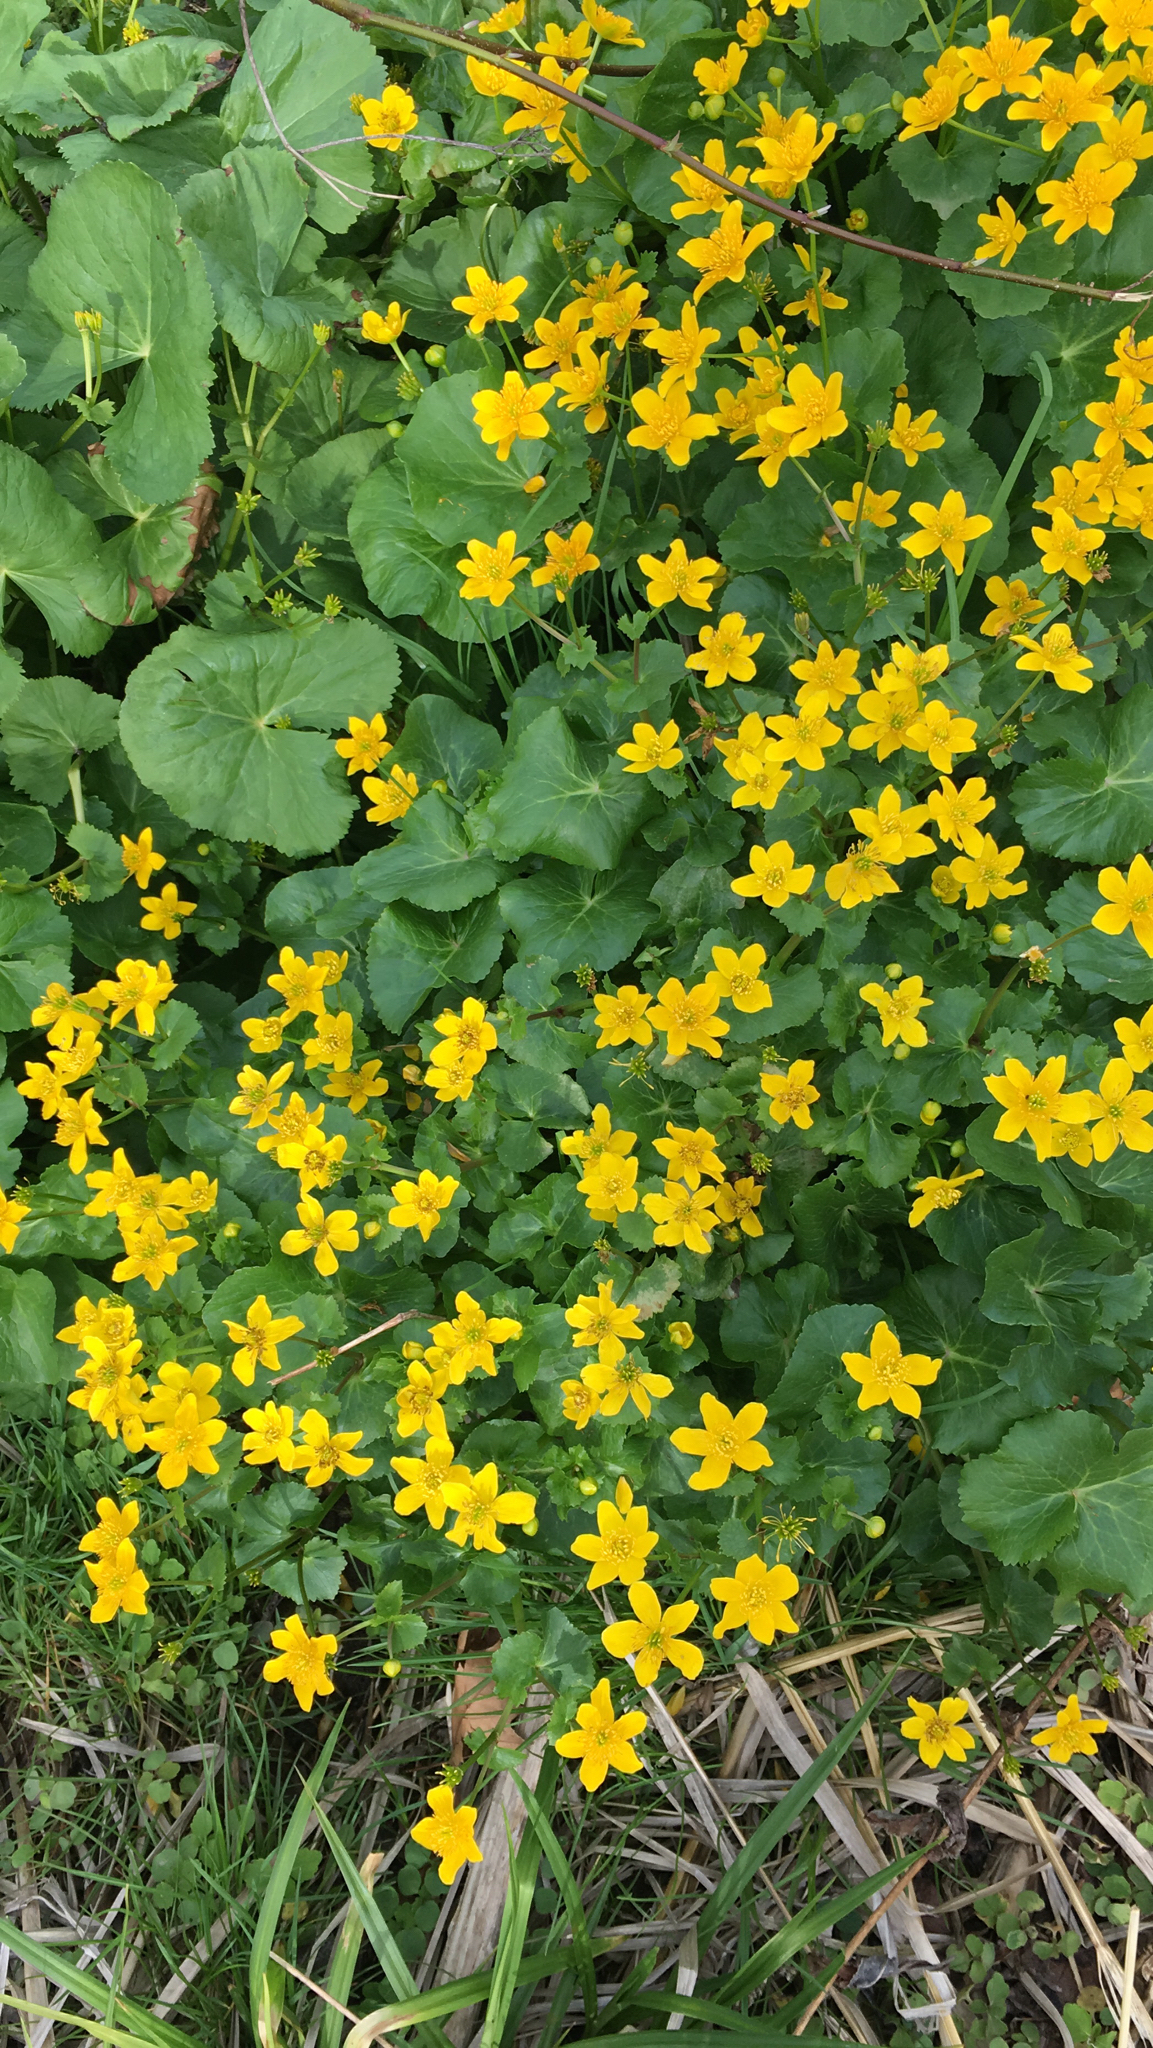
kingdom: Plantae
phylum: Tracheophyta
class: Magnoliopsida
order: Ranunculales
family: Ranunculaceae
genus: Caltha
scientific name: Caltha palustris
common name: Marsh marigold
